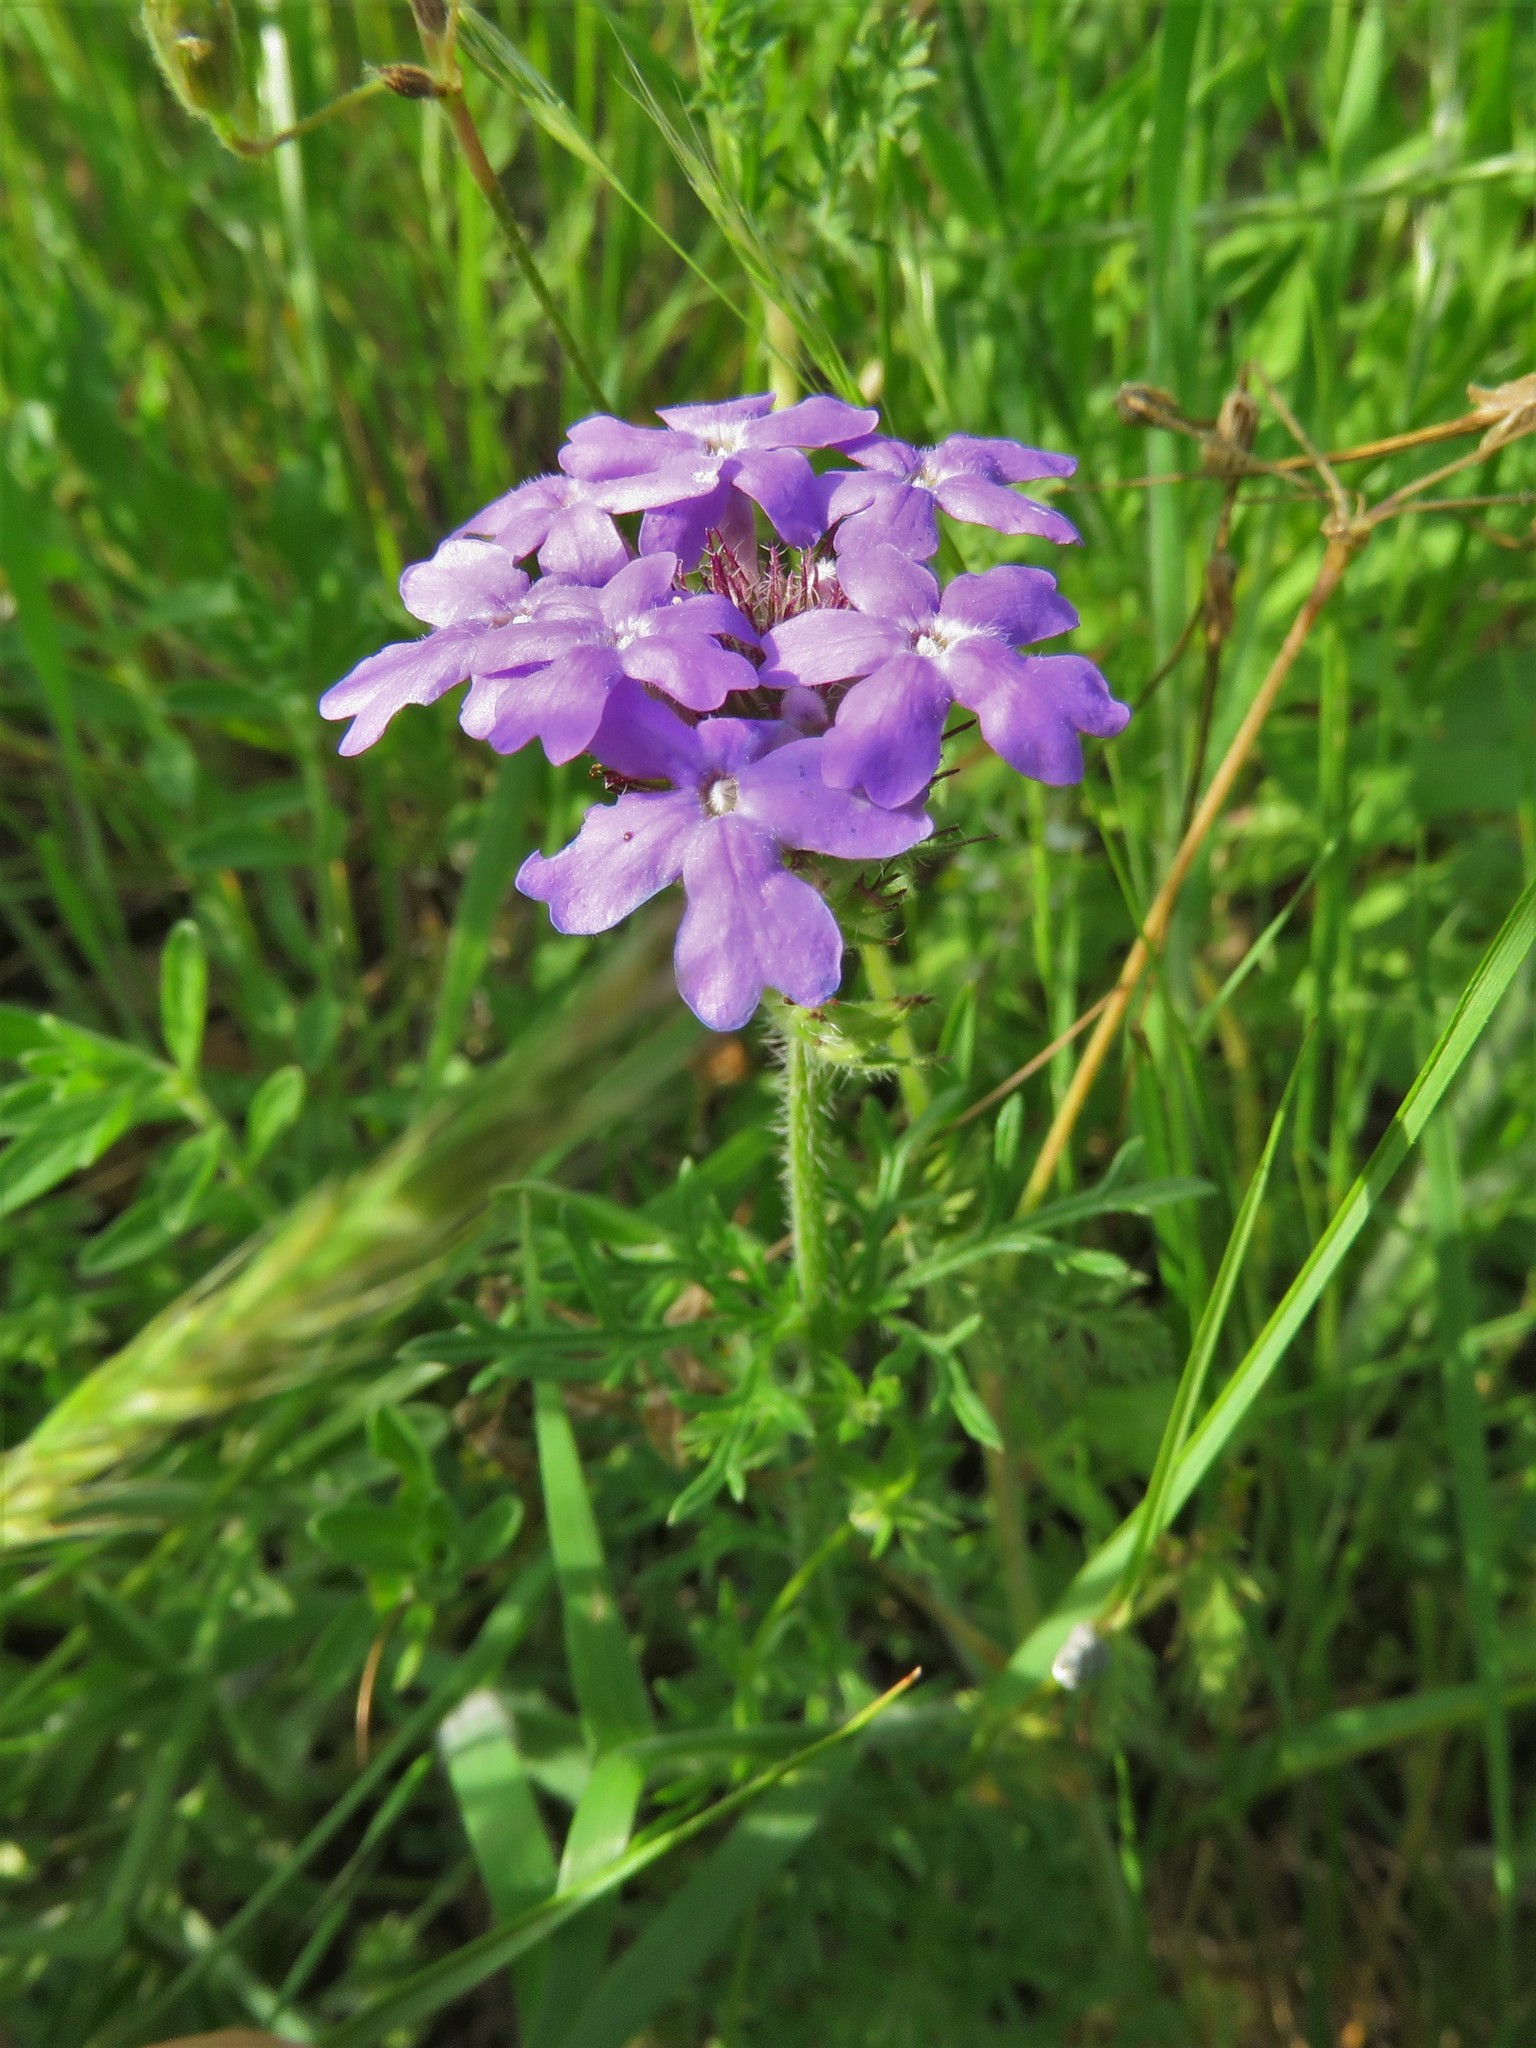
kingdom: Plantae
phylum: Tracheophyta
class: Magnoliopsida
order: Lamiales
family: Verbenaceae
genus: Verbena
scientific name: Verbena bipinnatifida
